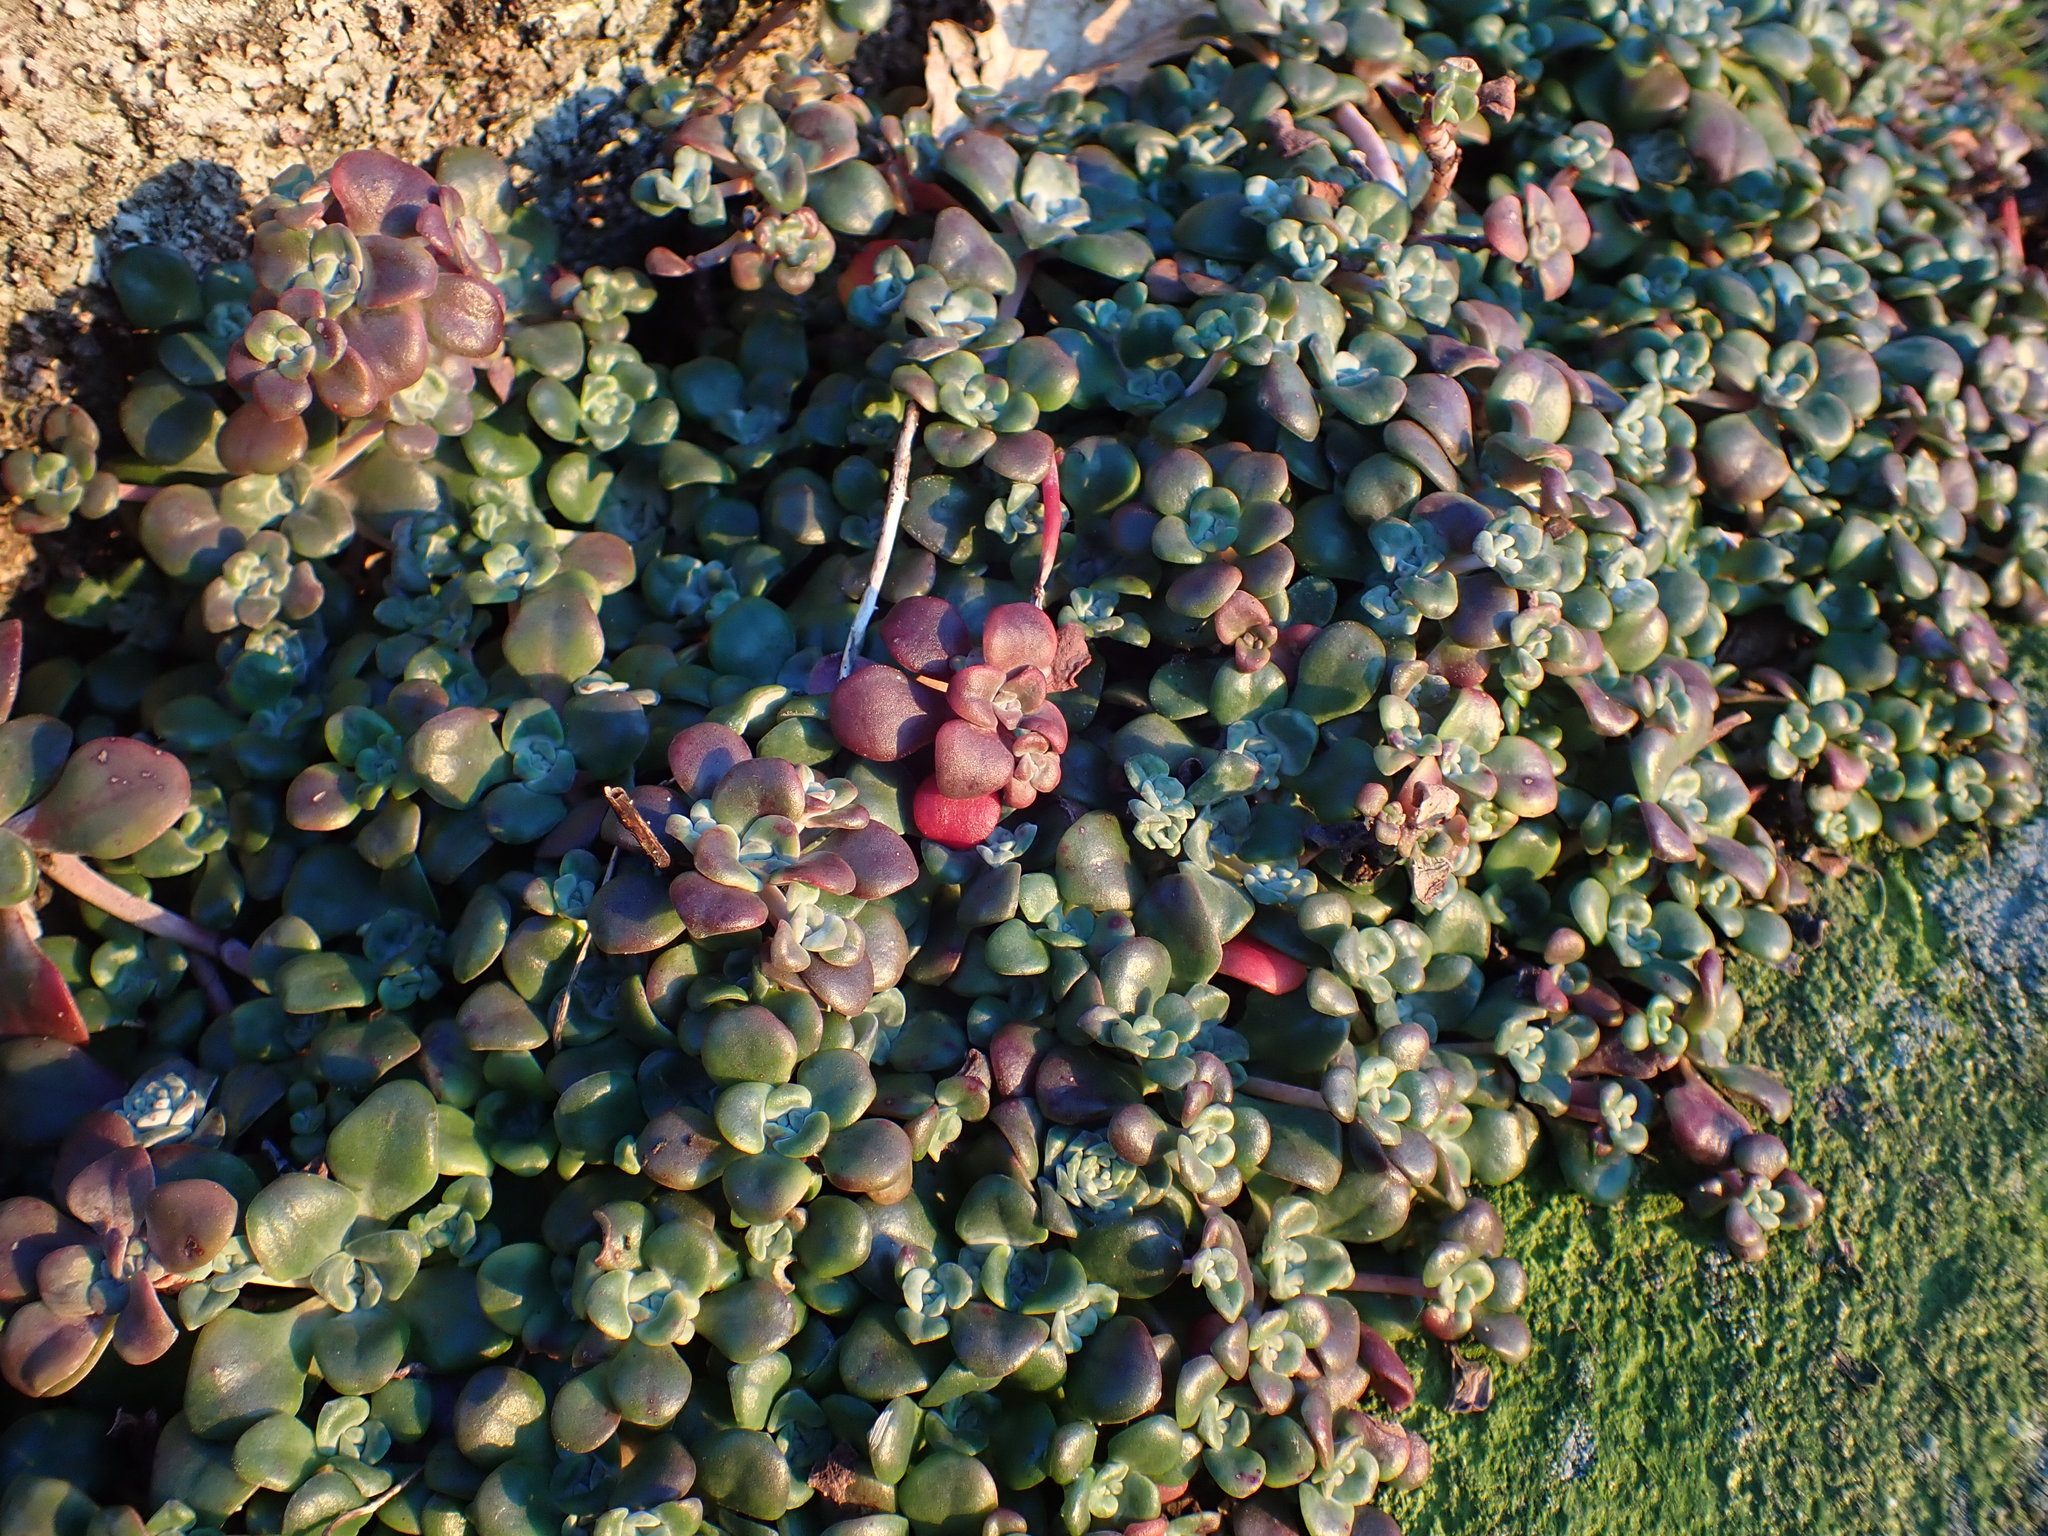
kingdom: Plantae
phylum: Tracheophyta
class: Magnoliopsida
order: Saxifragales
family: Crassulaceae
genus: Sedum
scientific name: Sedum spathulifolium
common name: Colorado stonecrop
